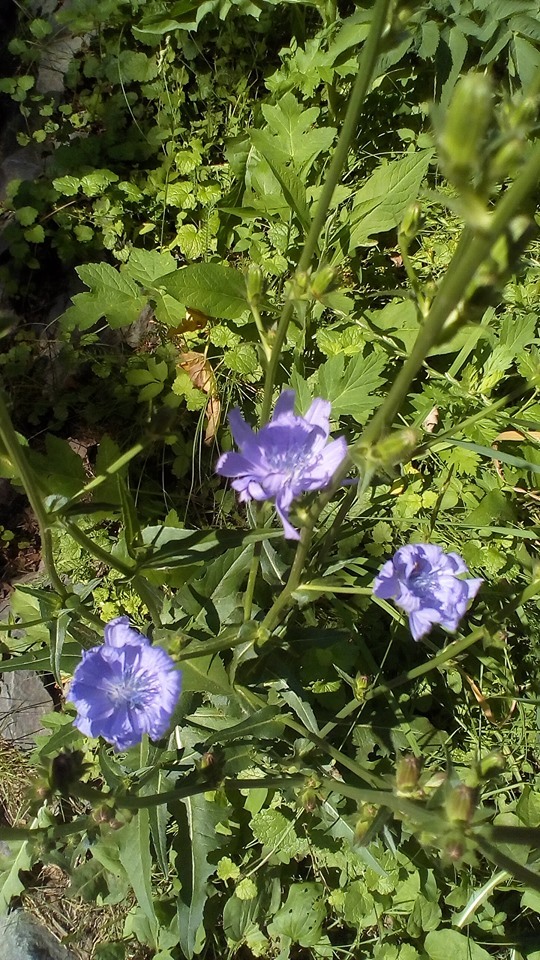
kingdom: Plantae
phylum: Tracheophyta
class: Magnoliopsida
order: Asterales
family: Asteraceae
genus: Cichorium
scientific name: Cichorium intybus
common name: Chicory
